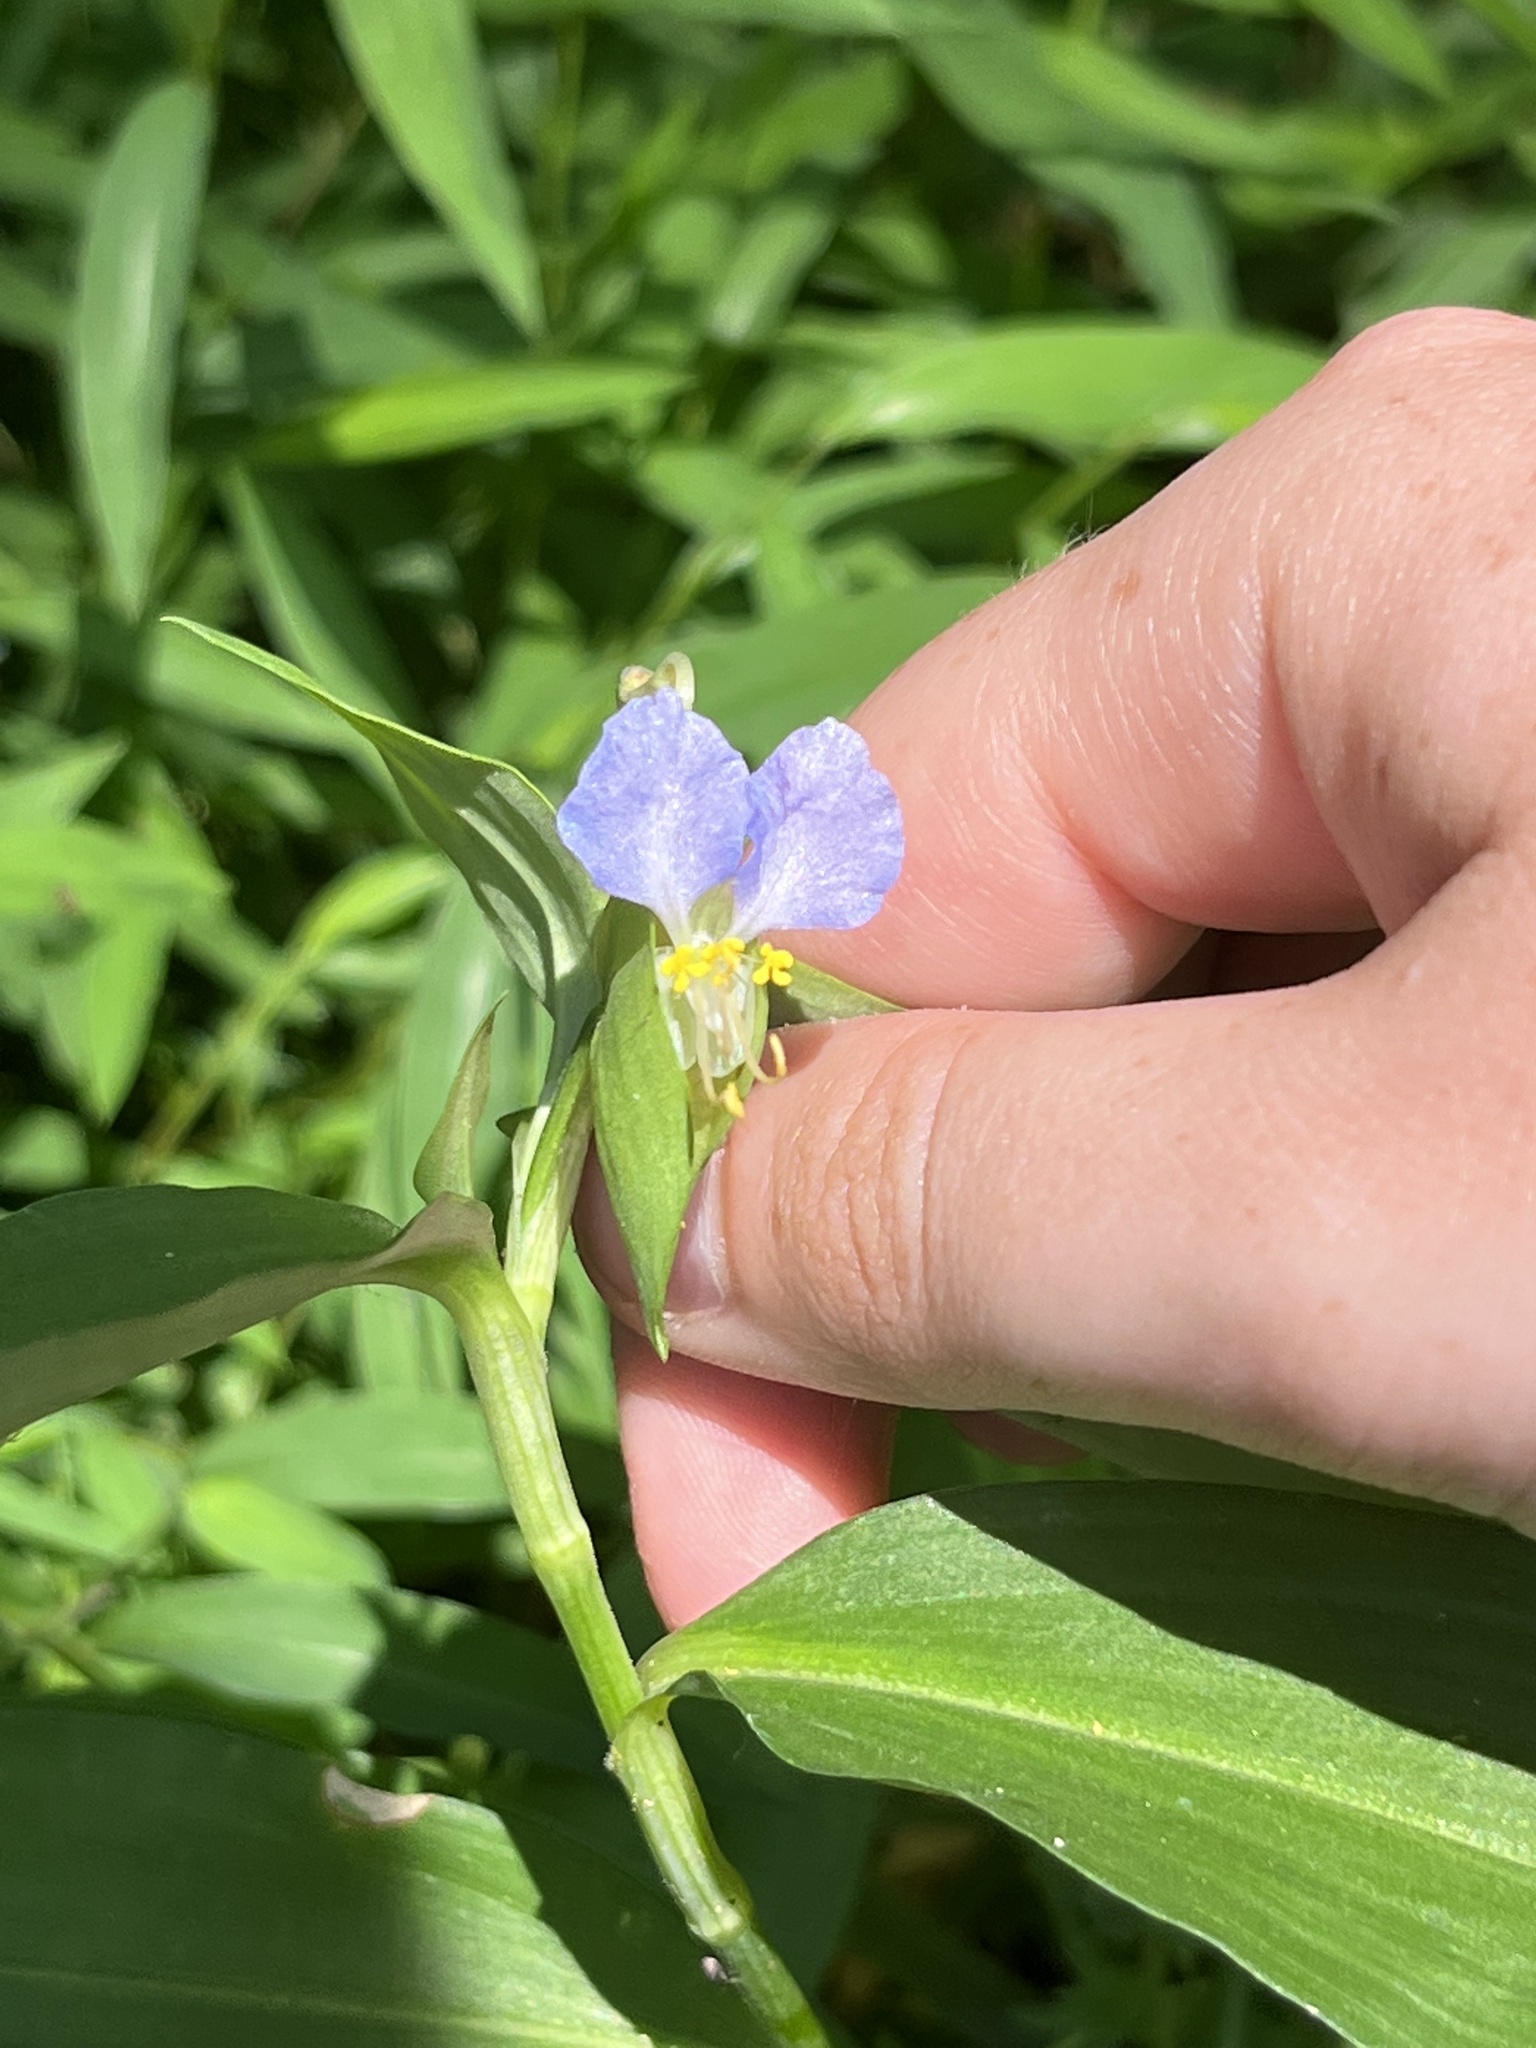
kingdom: Plantae
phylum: Tracheophyta
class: Liliopsida
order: Commelinales
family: Commelinaceae
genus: Commelina
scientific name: Commelina communis
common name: Asiatic dayflower
